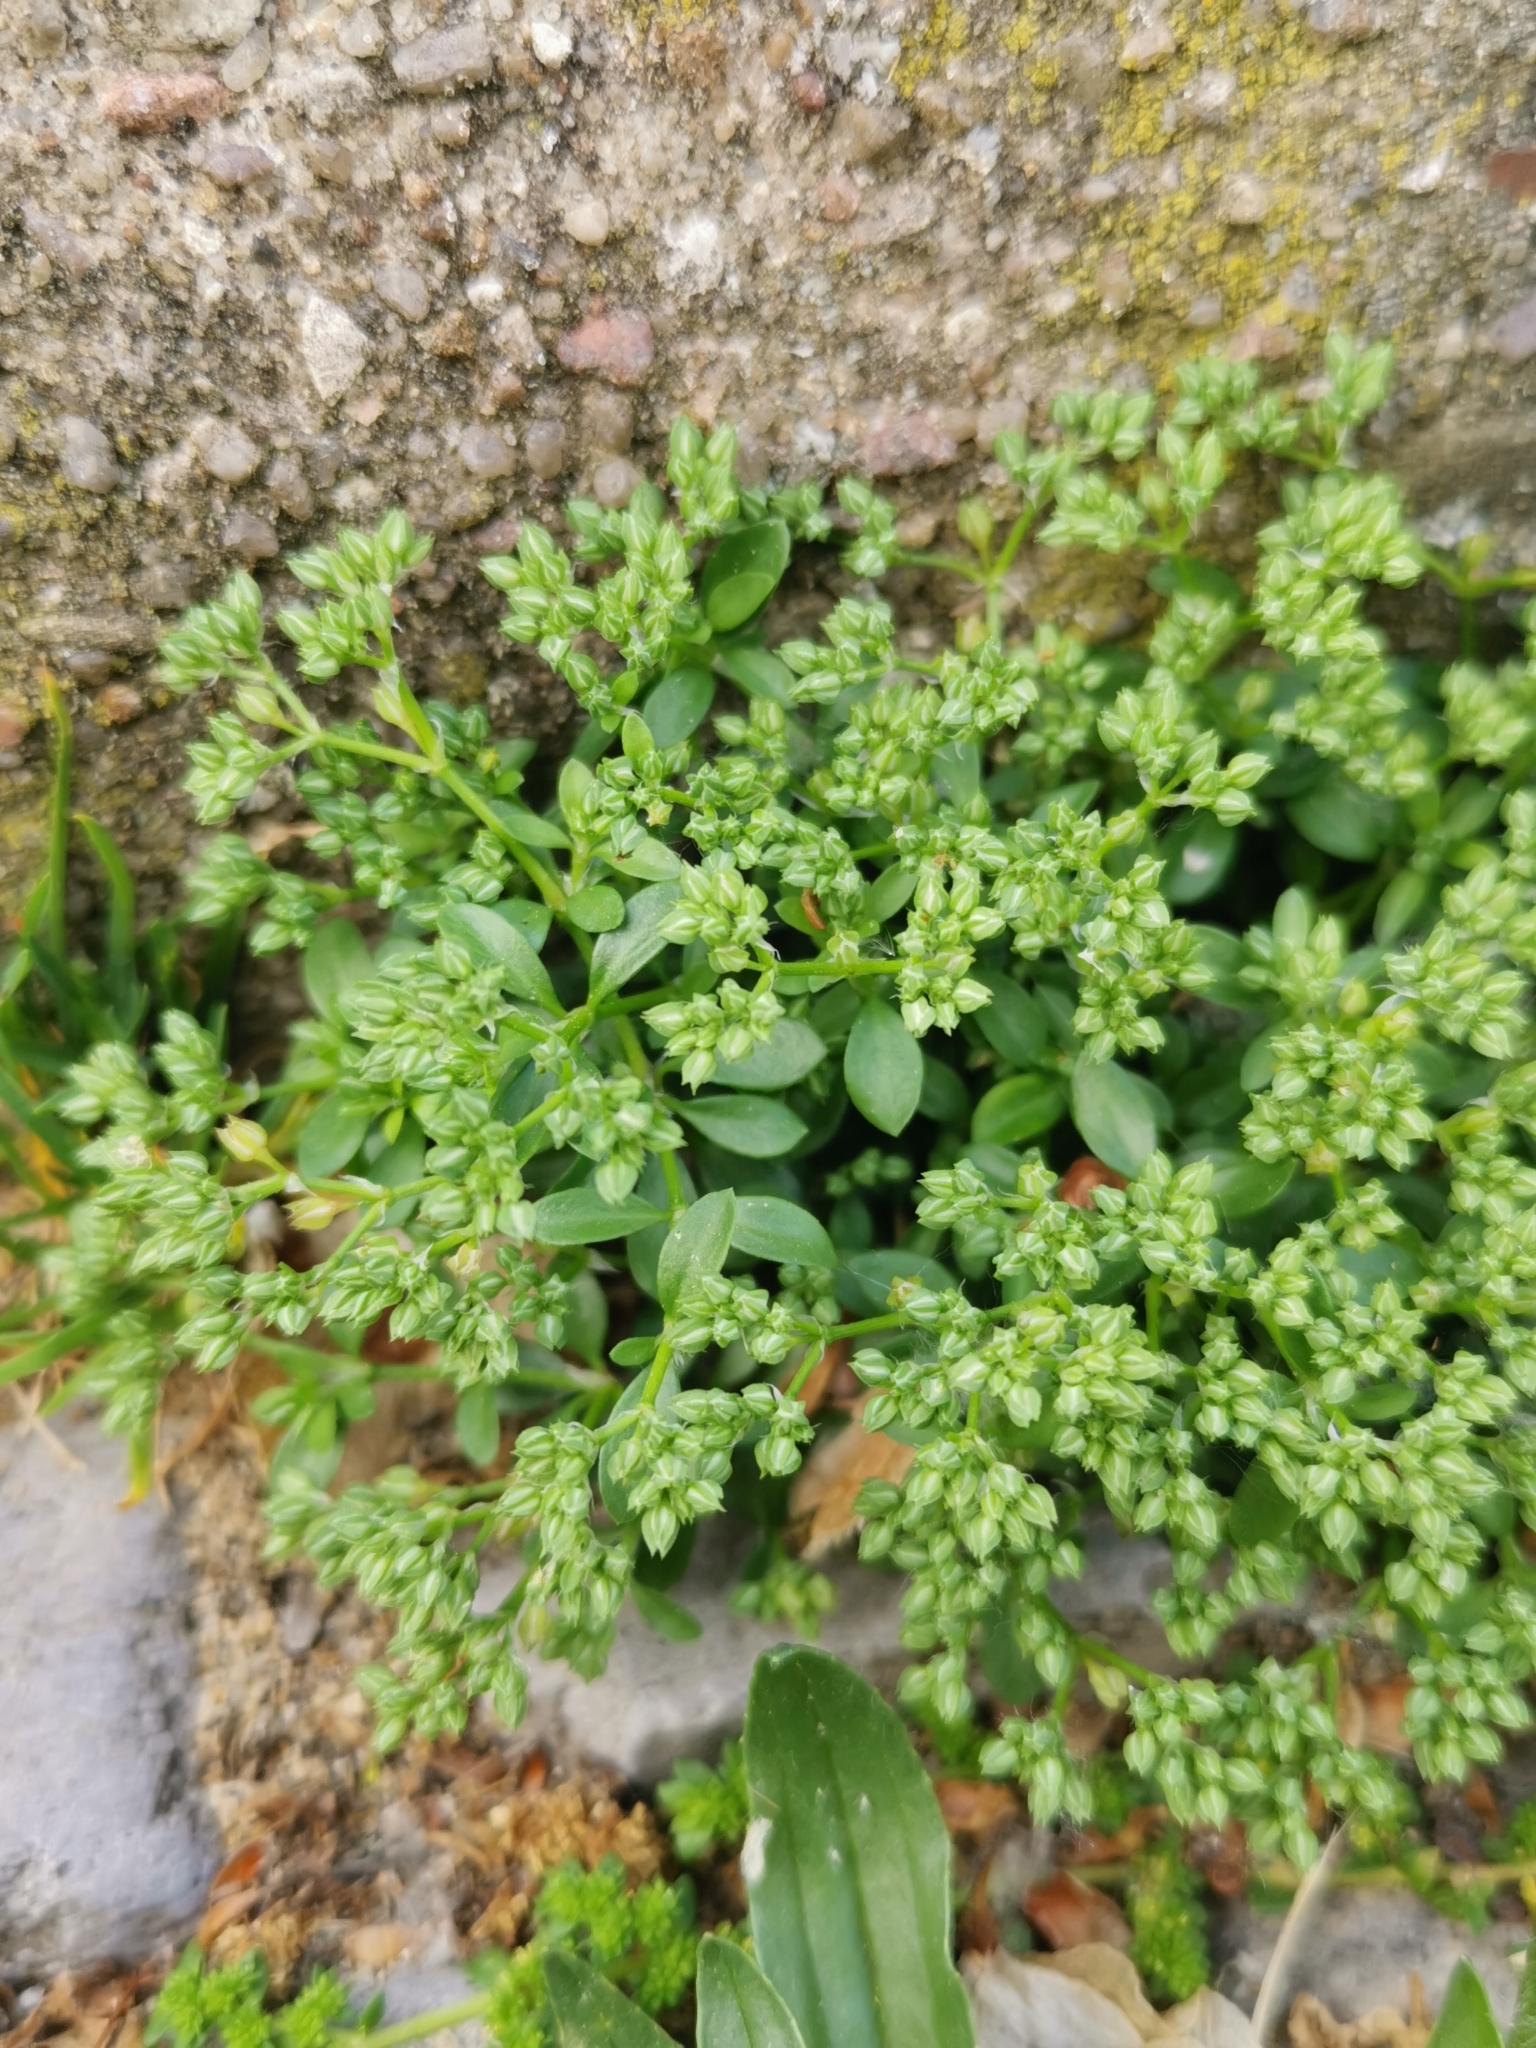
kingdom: Plantae
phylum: Tracheophyta
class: Magnoliopsida
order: Caryophyllales
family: Caryophyllaceae
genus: Polycarpon
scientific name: Polycarpon tetraphyllum
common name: Four-leaved all-seed
